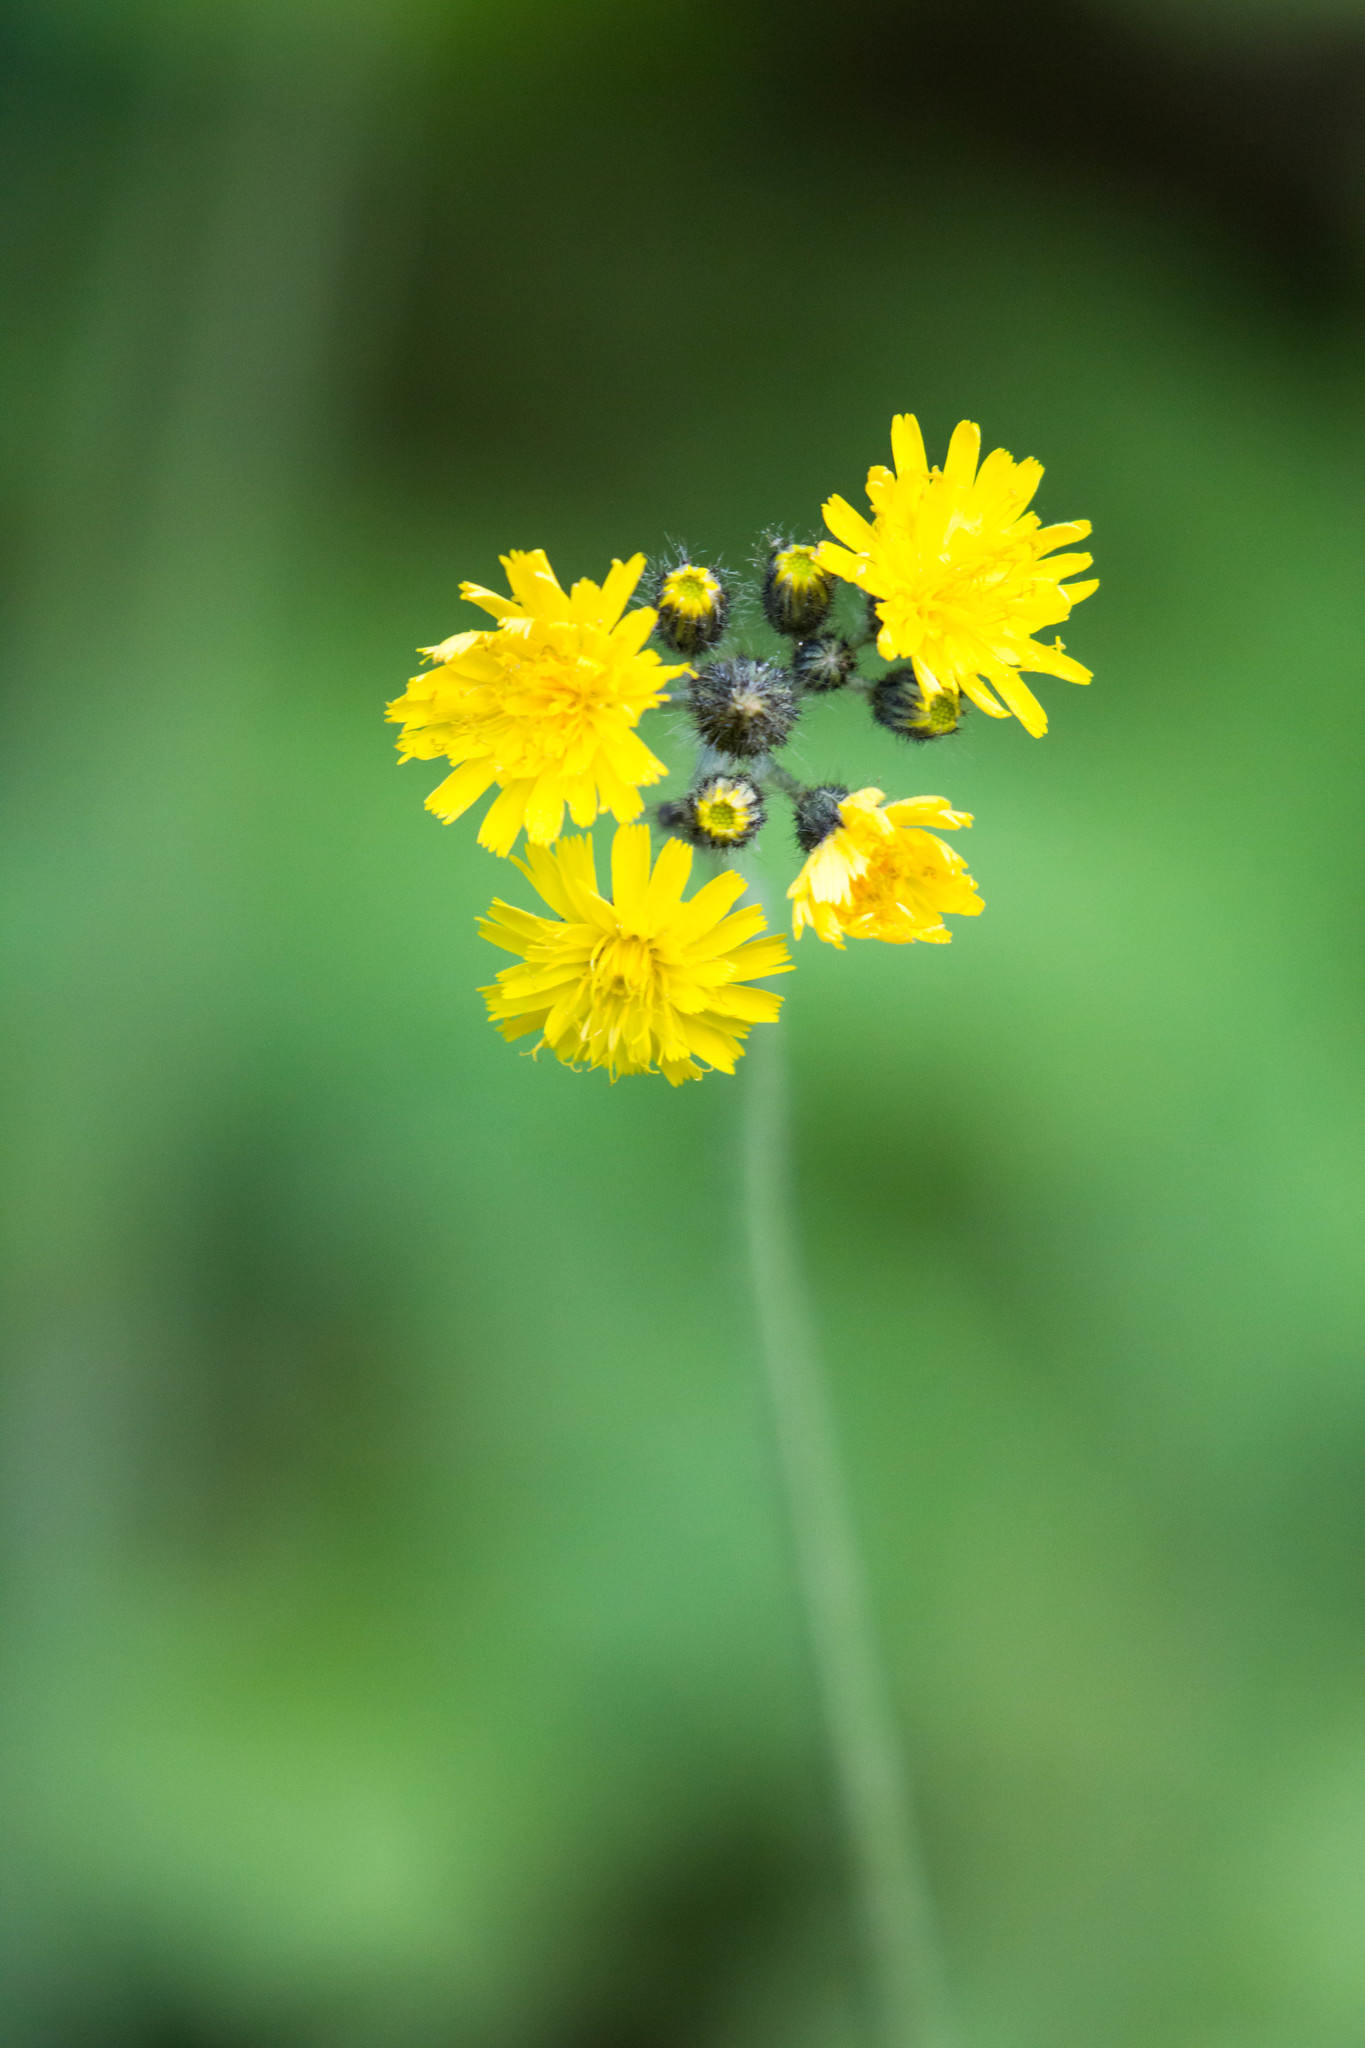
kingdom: Plantae
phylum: Tracheophyta
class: Magnoliopsida
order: Asterales
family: Asteraceae
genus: Pilosella
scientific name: Pilosella caespitosa
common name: Yellow fox-and-cubs
